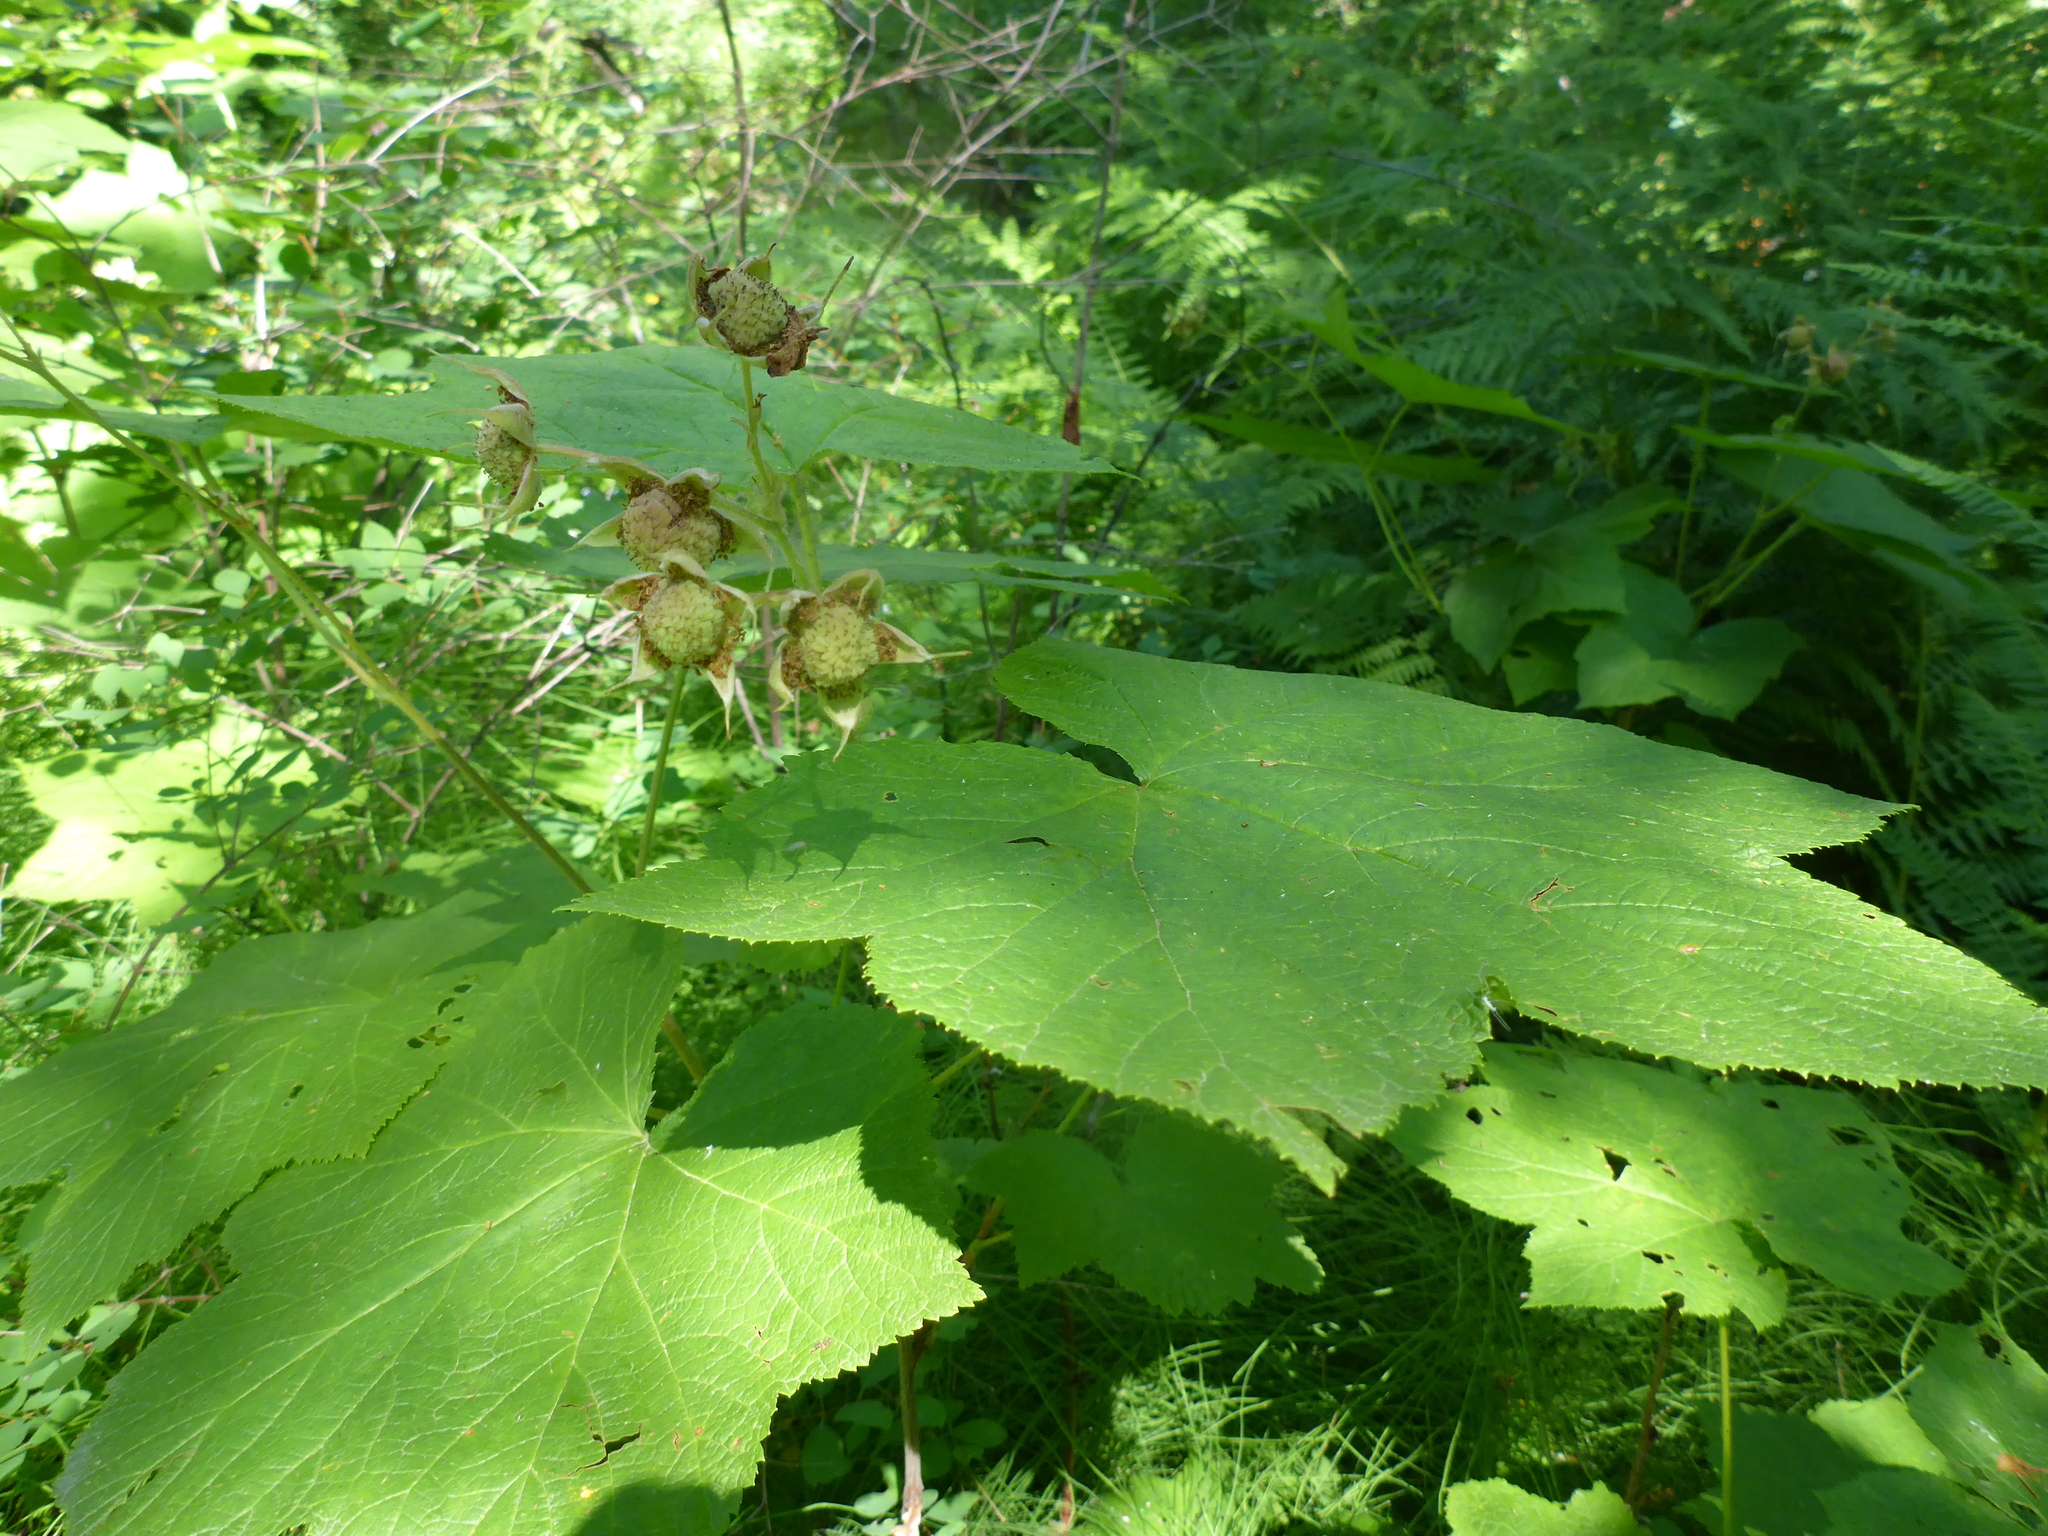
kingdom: Plantae
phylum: Tracheophyta
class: Magnoliopsida
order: Rosales
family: Rosaceae
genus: Rubus
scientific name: Rubus parviflorus
